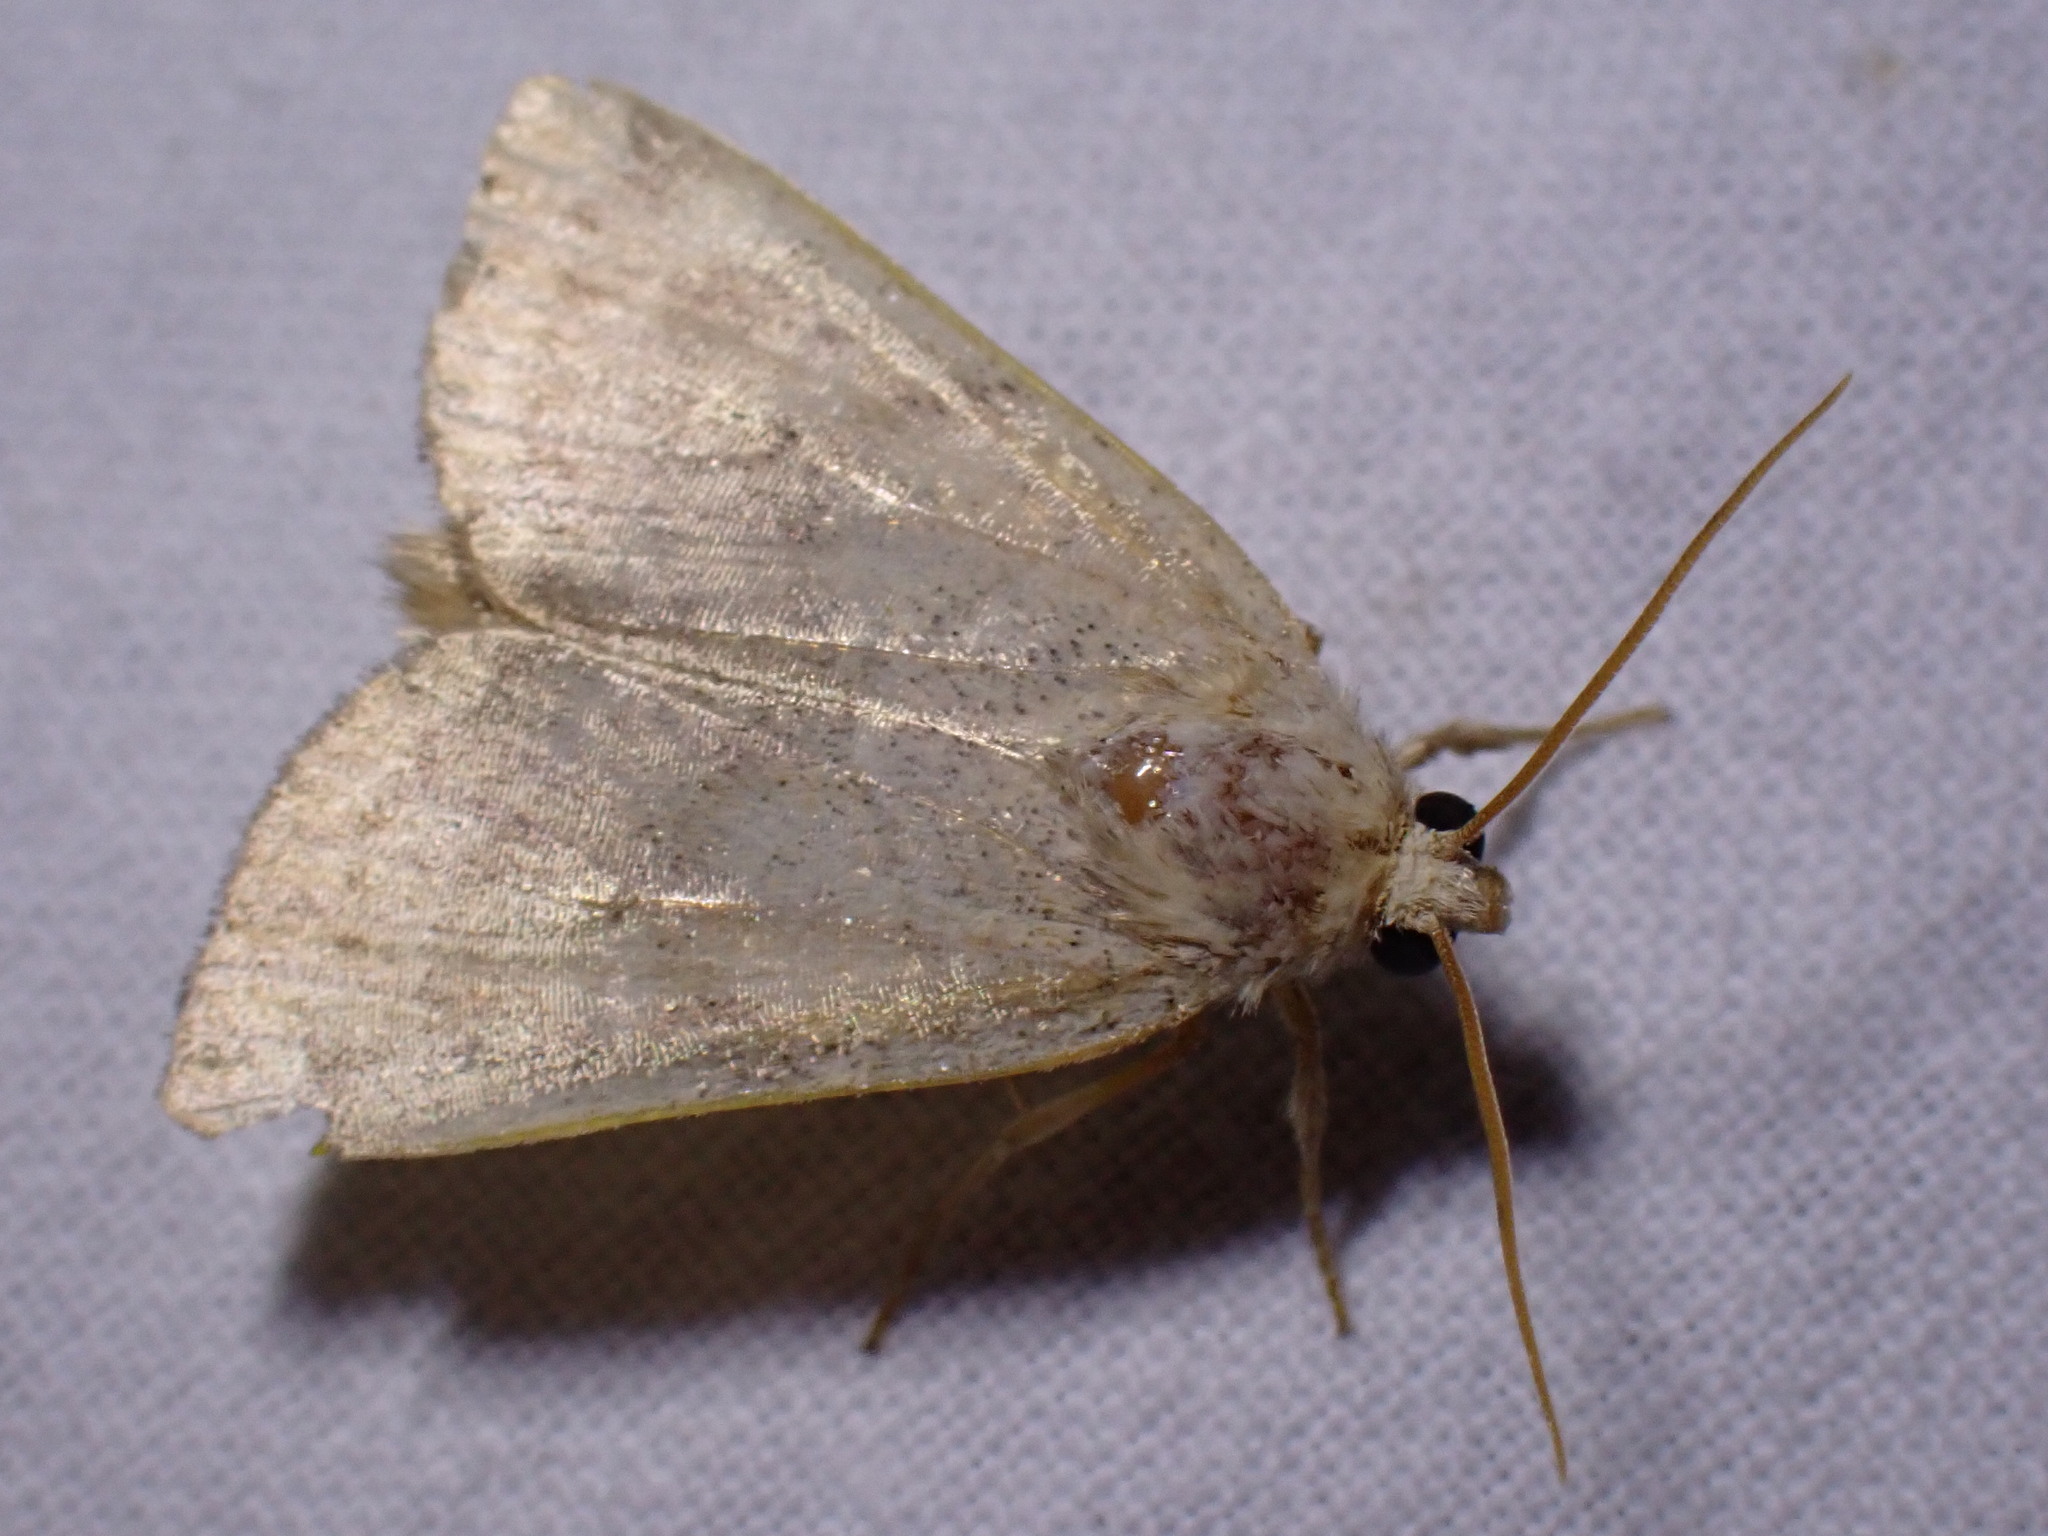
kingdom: Animalia
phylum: Arthropoda
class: Insecta
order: Lepidoptera
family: Noctuidae
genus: Cosmia
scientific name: Cosmia trapezina
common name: Dun-bar
